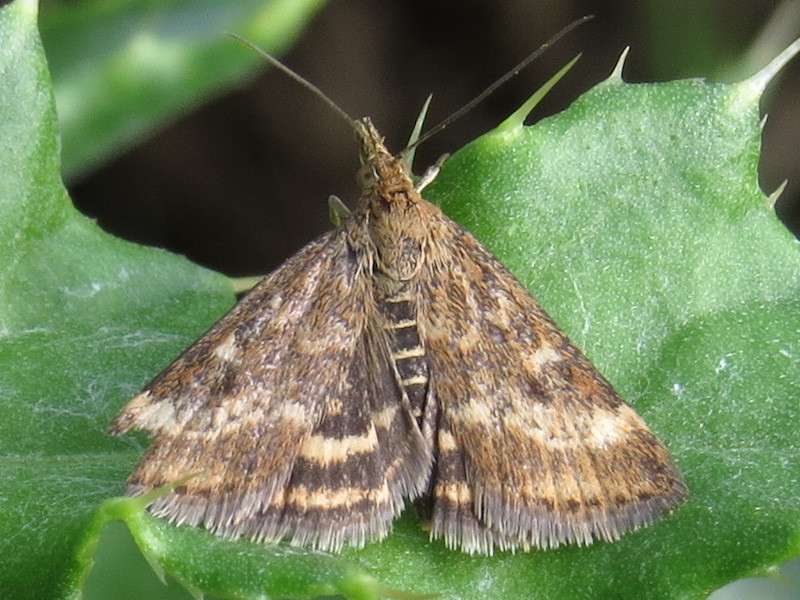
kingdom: Animalia
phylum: Arthropoda
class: Insecta
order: Lepidoptera
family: Crambidae
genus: Pyrausta
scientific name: Pyrausta despicata
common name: Straw-barred pearl
